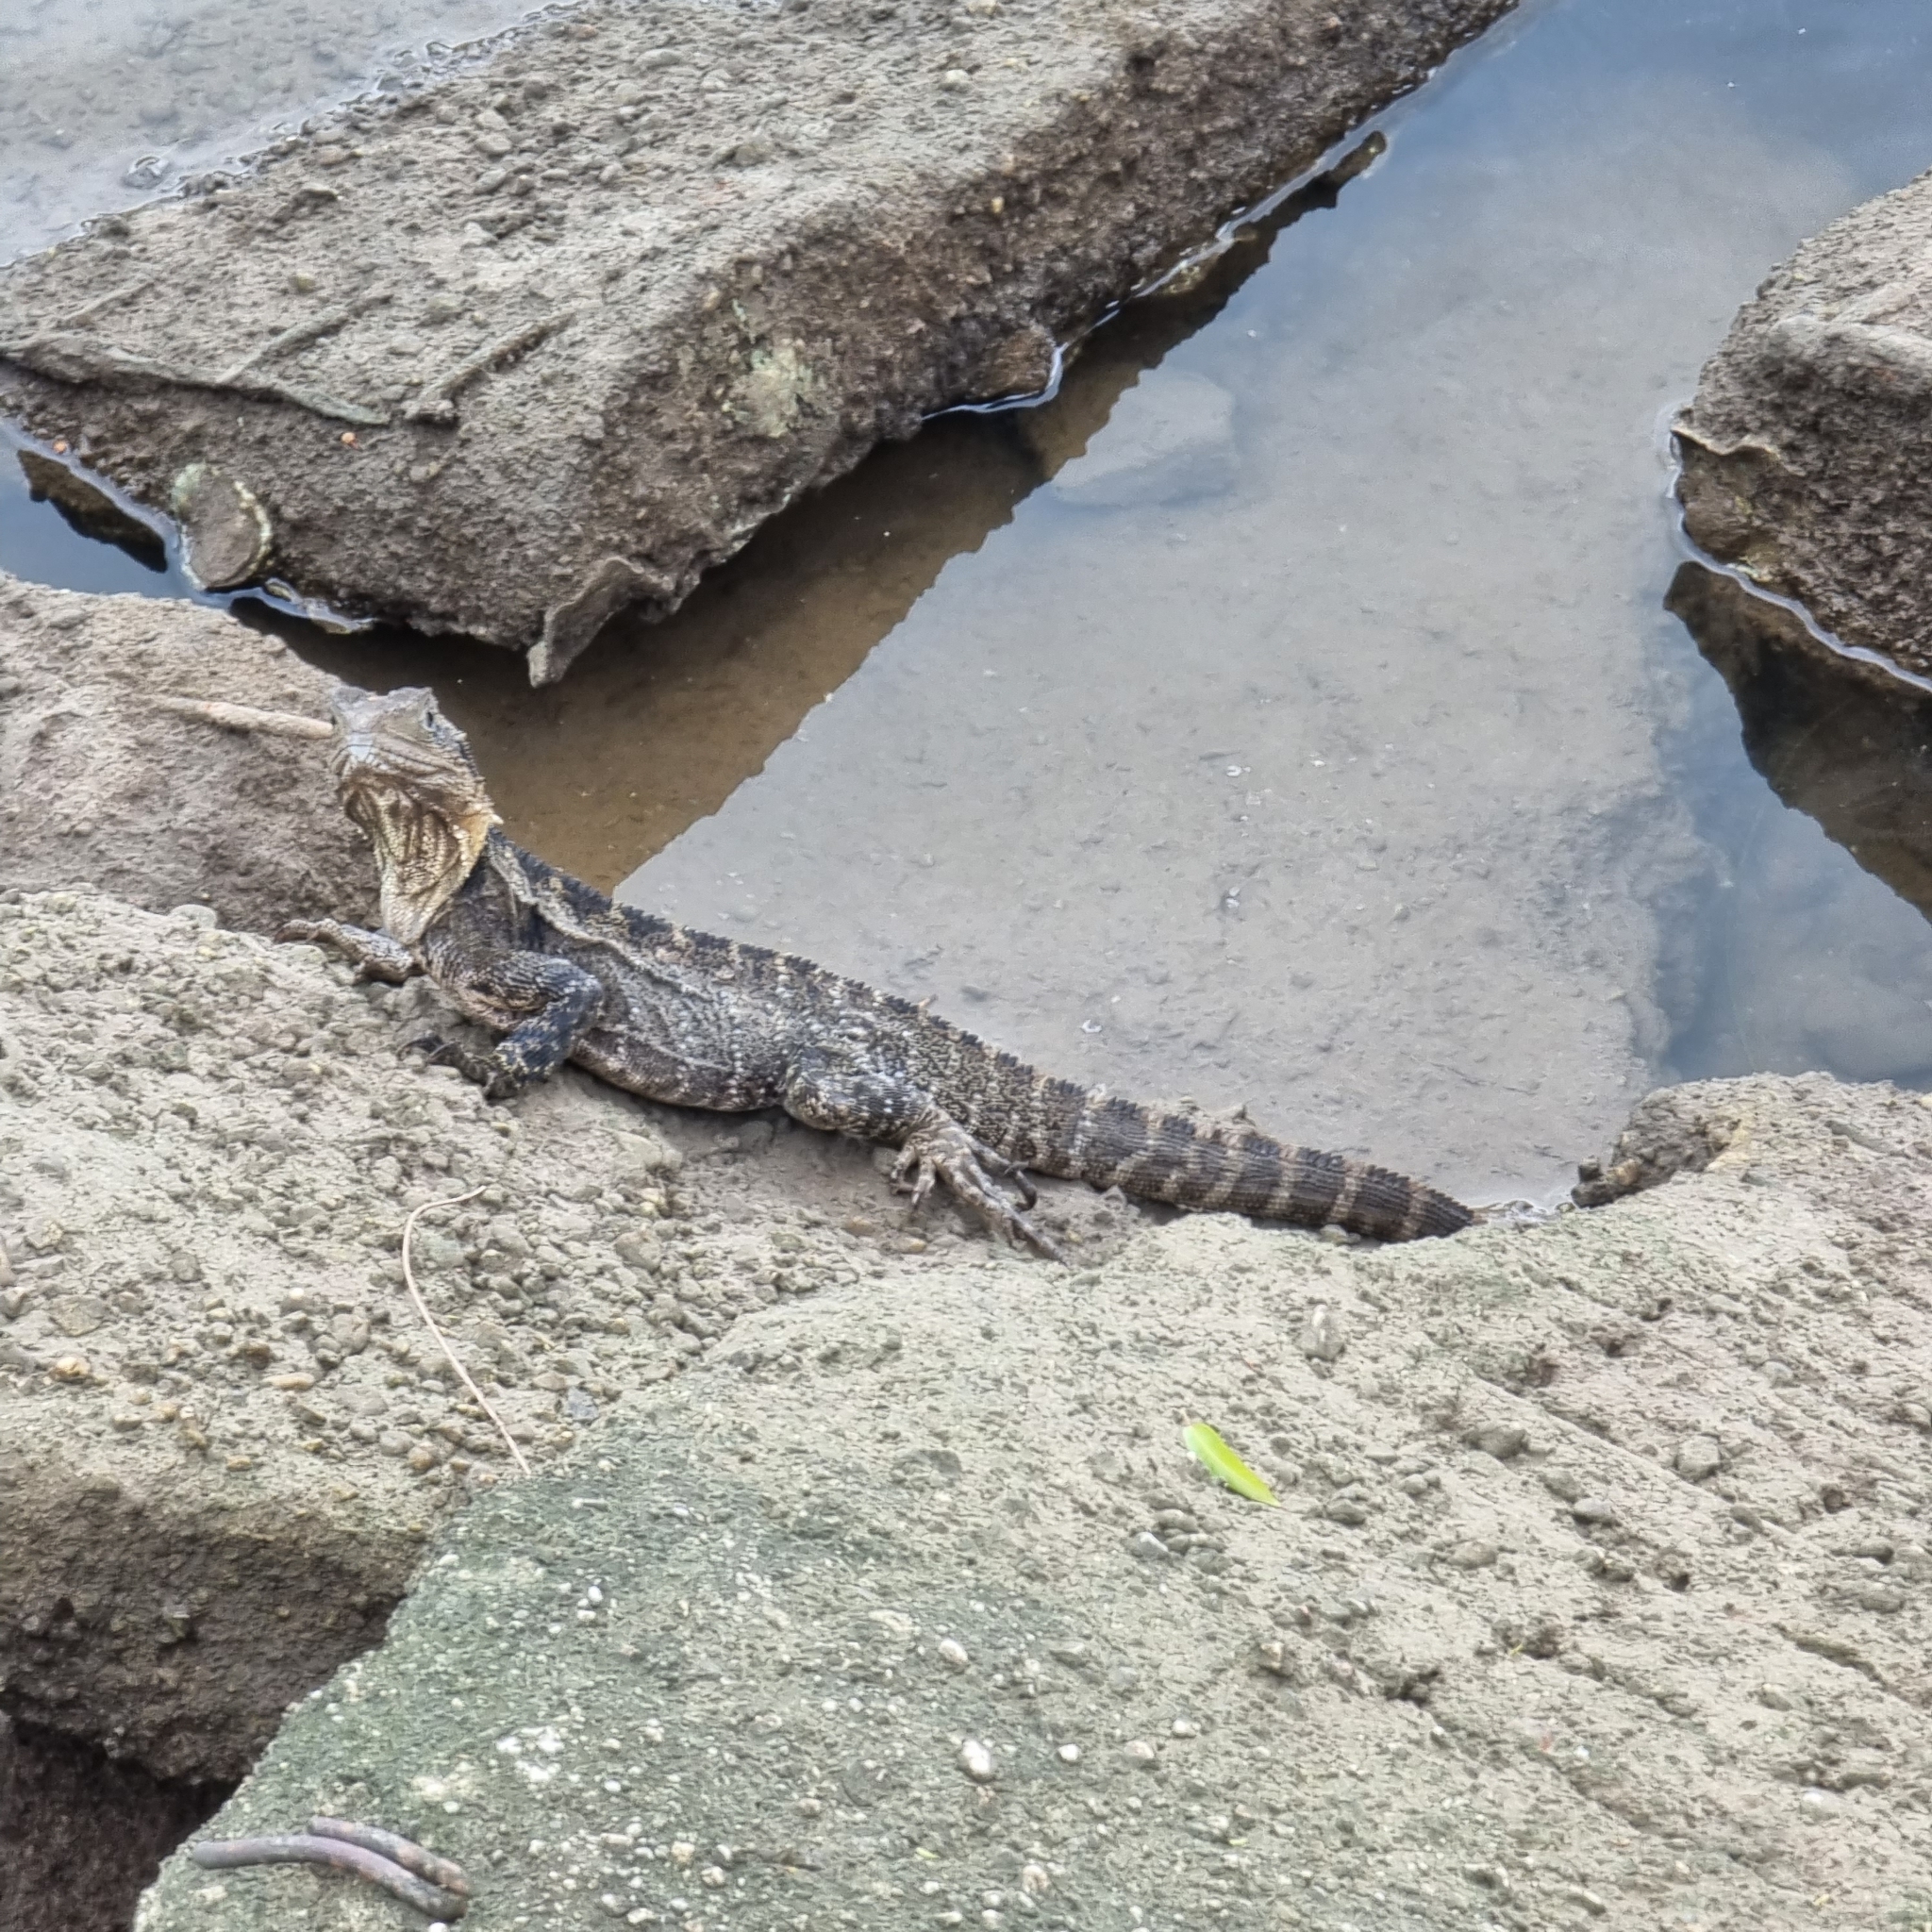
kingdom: Animalia
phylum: Chordata
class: Squamata
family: Agamidae
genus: Intellagama
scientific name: Intellagama lesueurii
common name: Eastern water dragon
